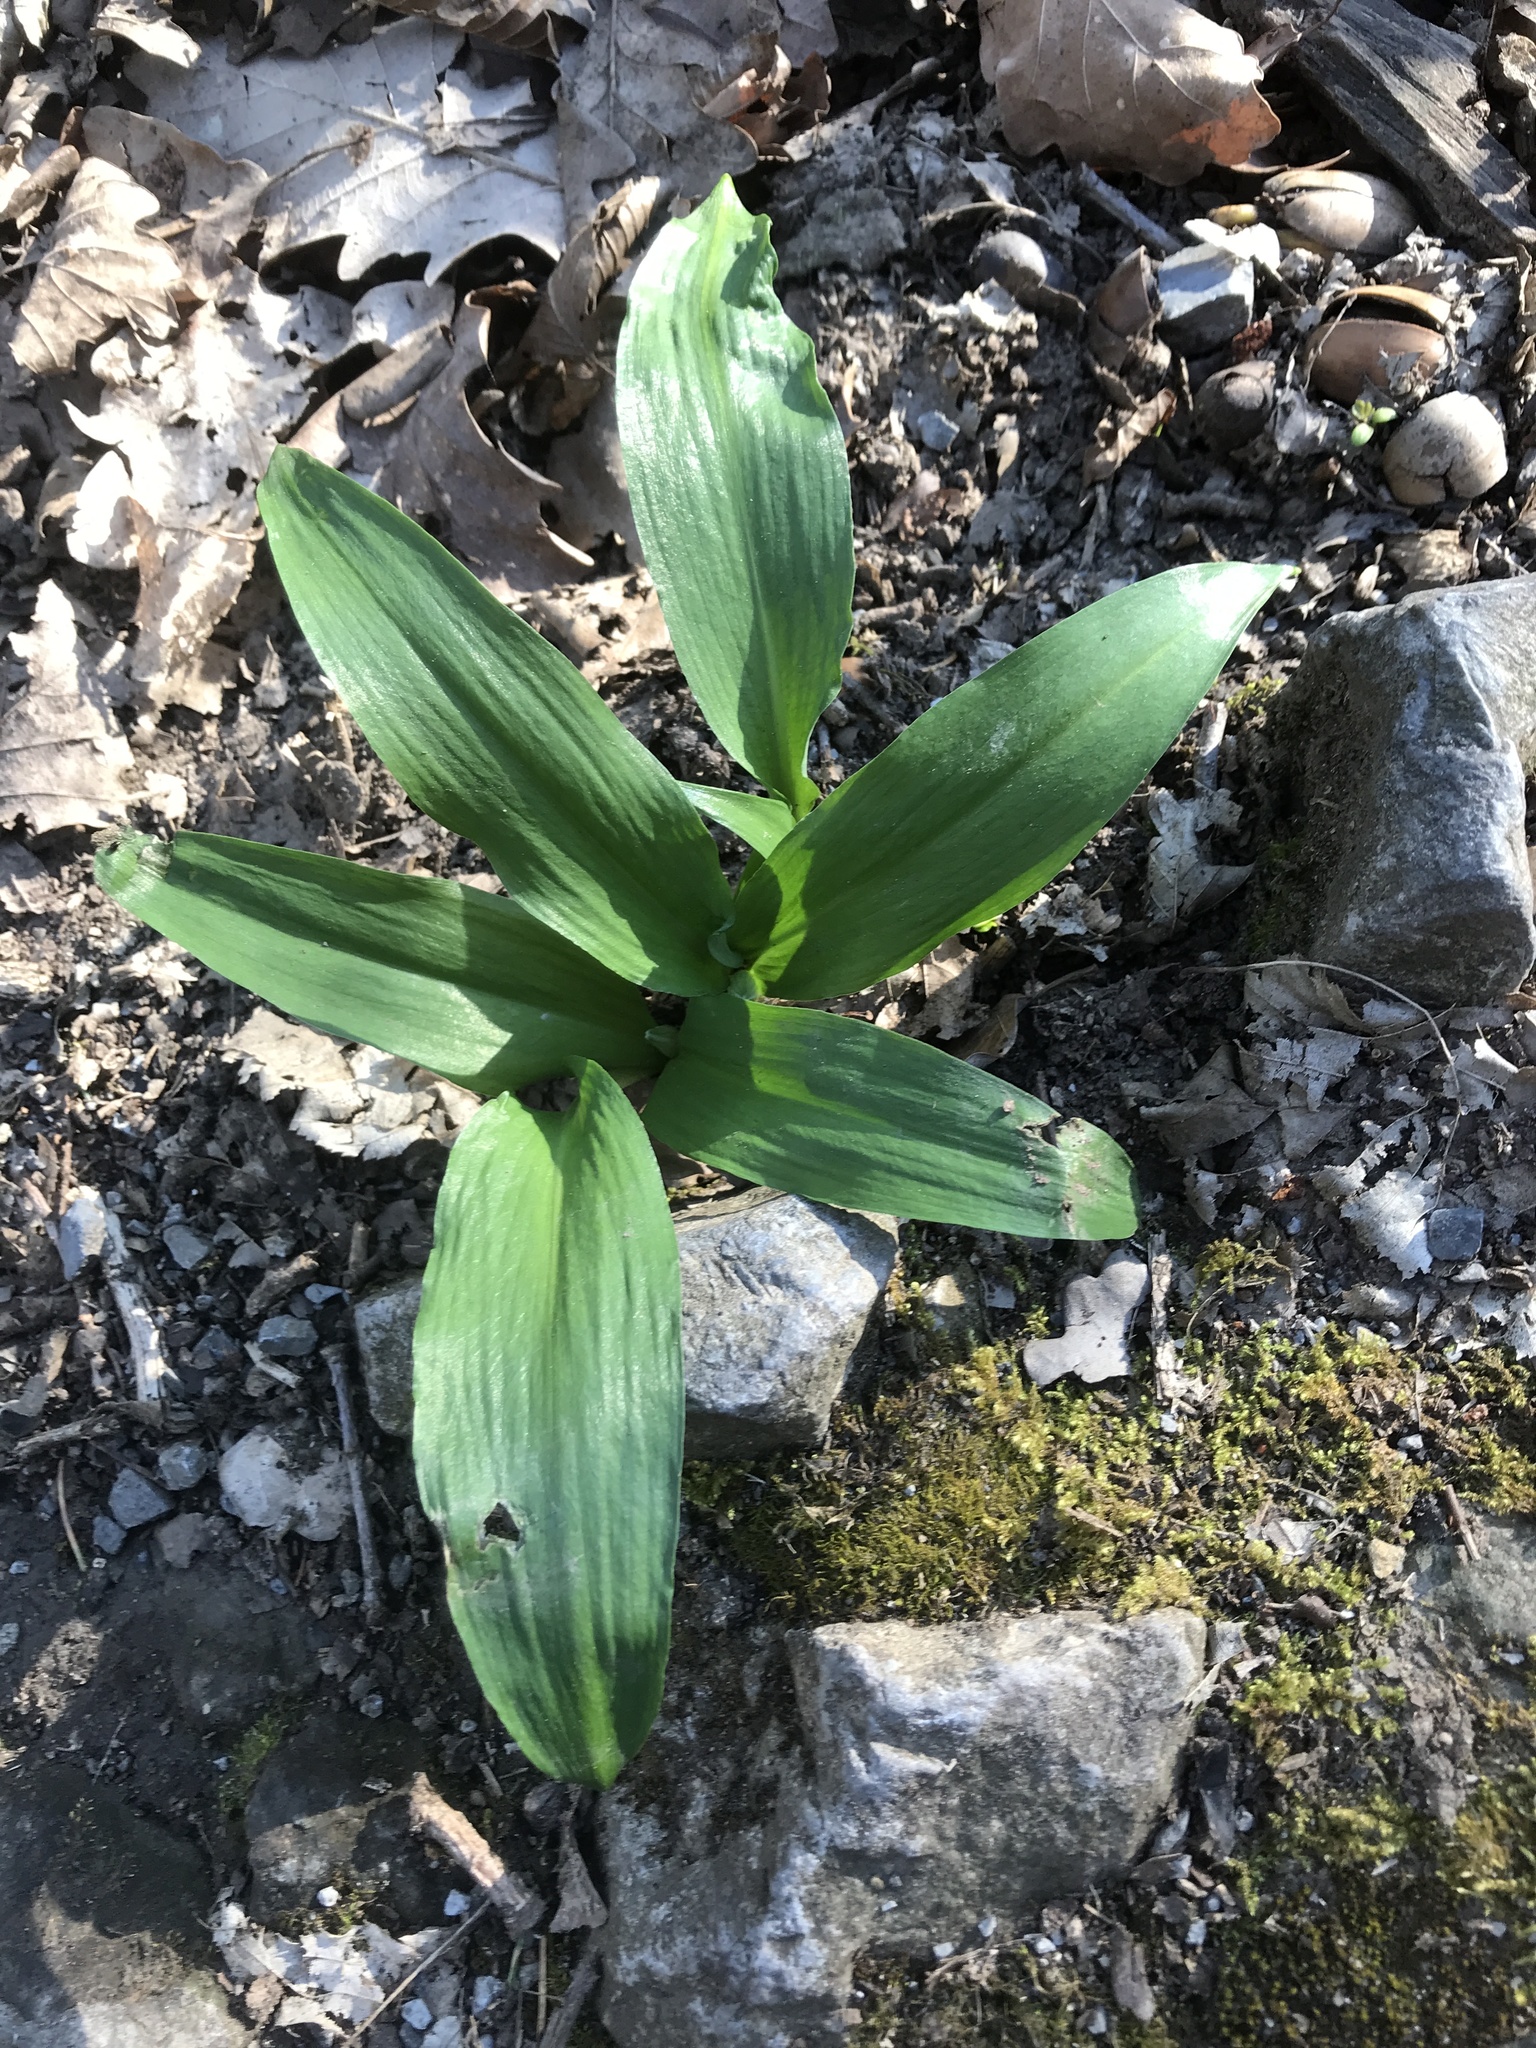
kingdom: Plantae
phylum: Tracheophyta
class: Liliopsida
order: Asparagales
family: Amaryllidaceae
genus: Allium
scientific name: Allium ursinum
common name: Ramsons
